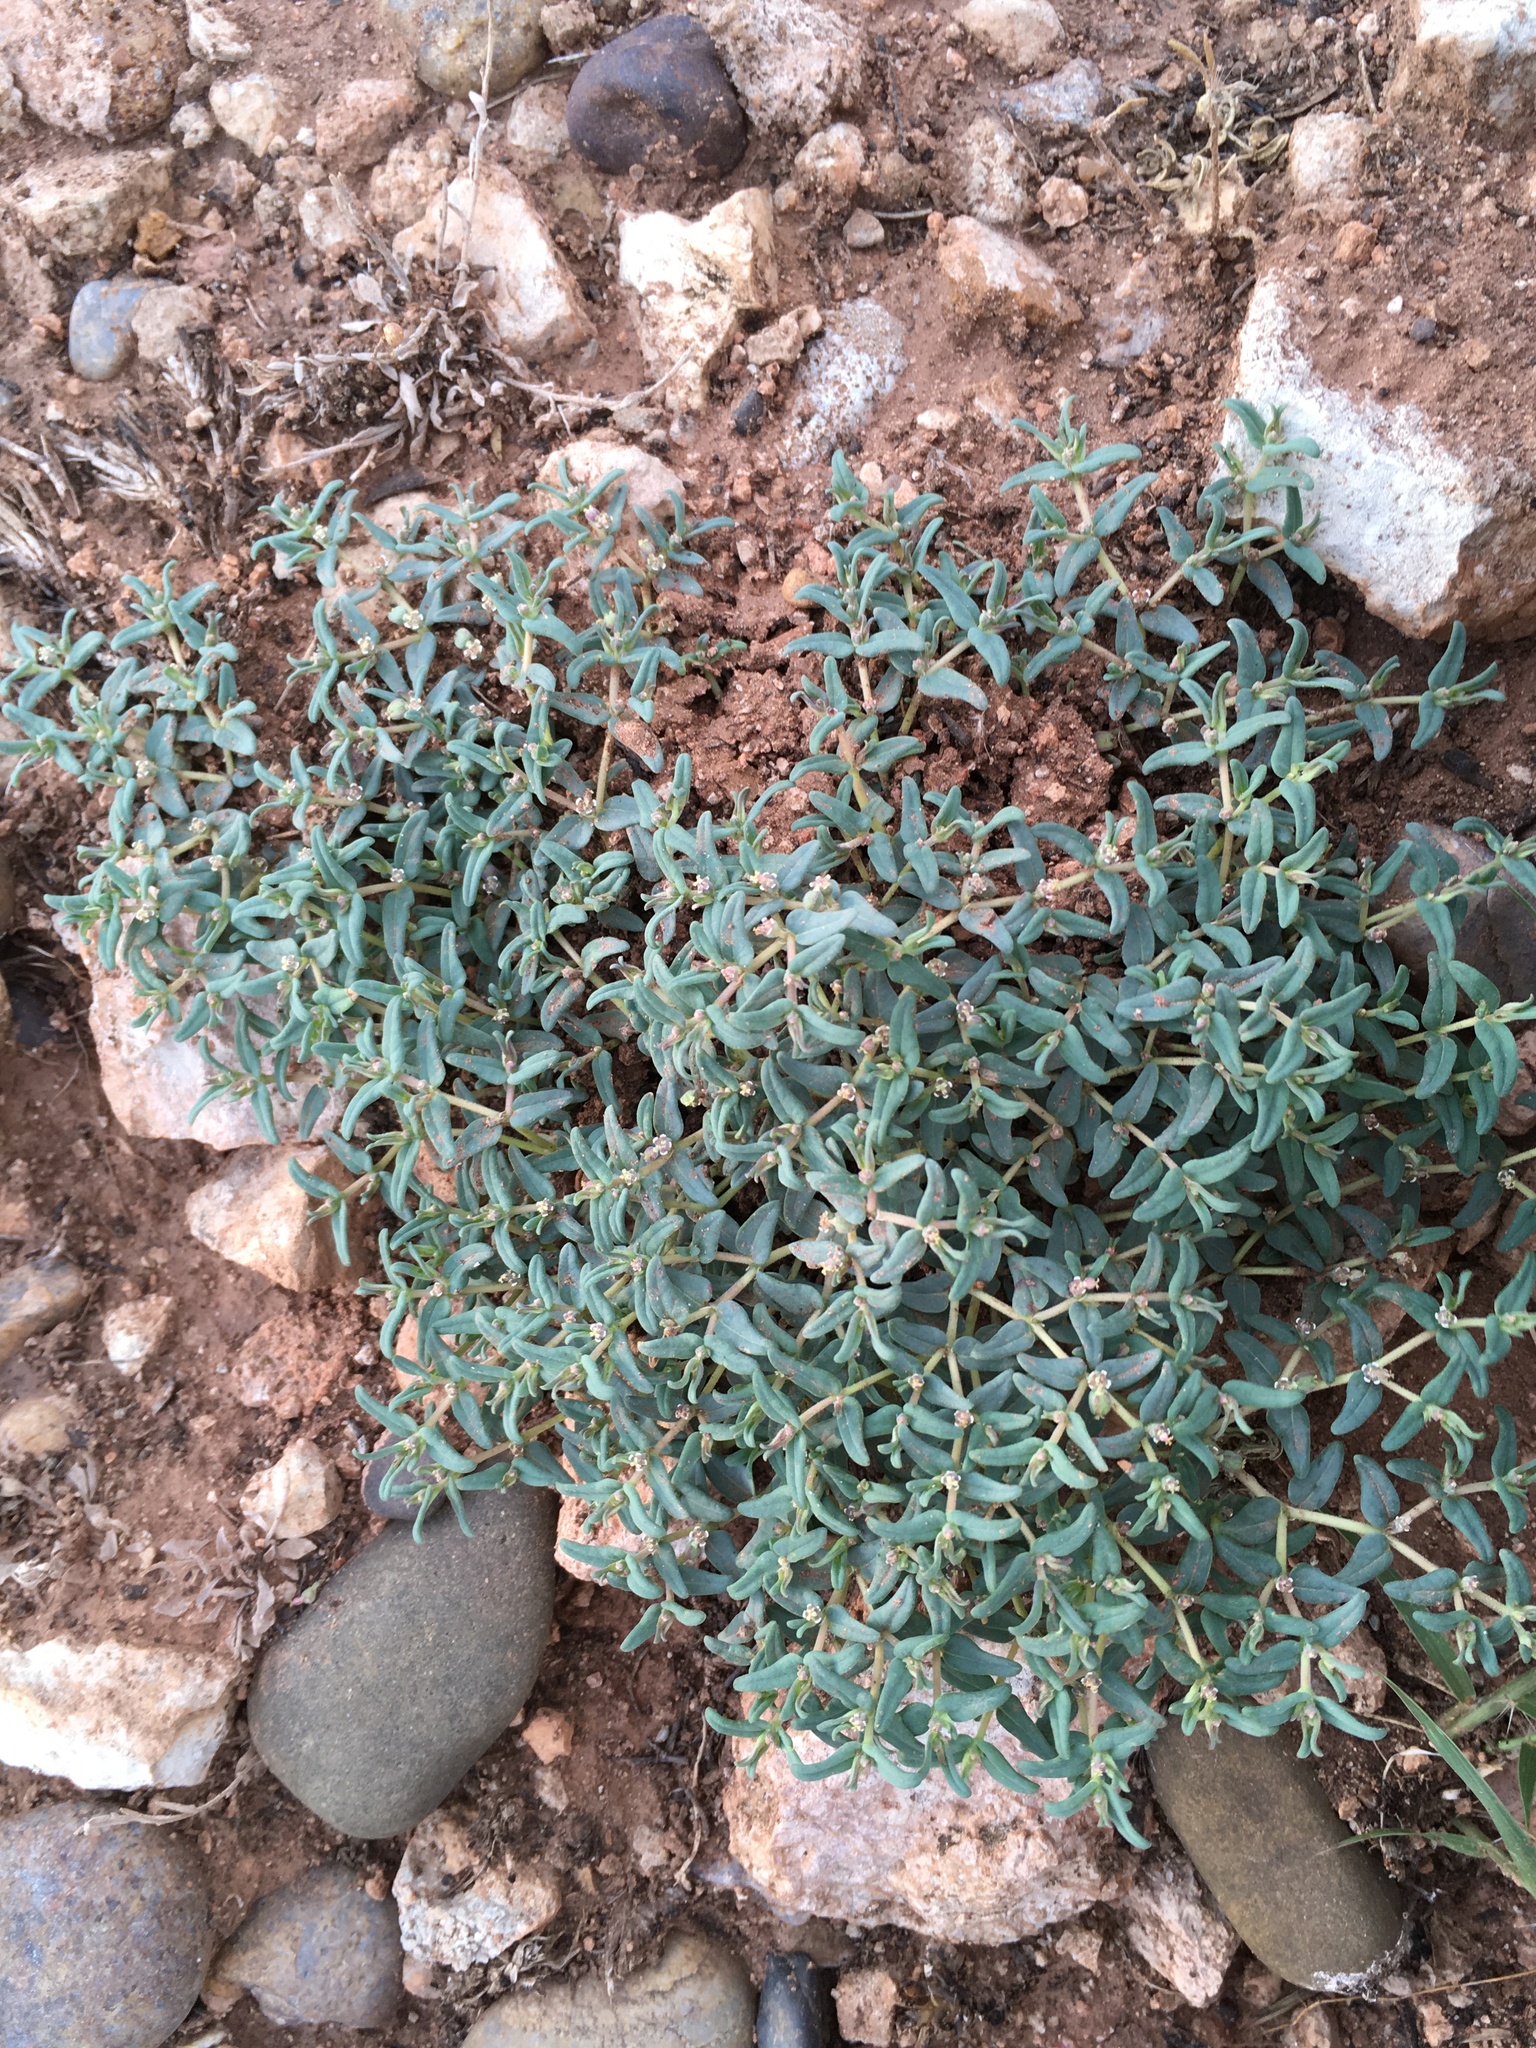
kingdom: Plantae
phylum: Tracheophyta
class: Magnoliopsida
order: Malpighiales
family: Euphorbiaceae
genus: Euphorbia
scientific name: Euphorbia lata
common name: Hoary euphorbia
